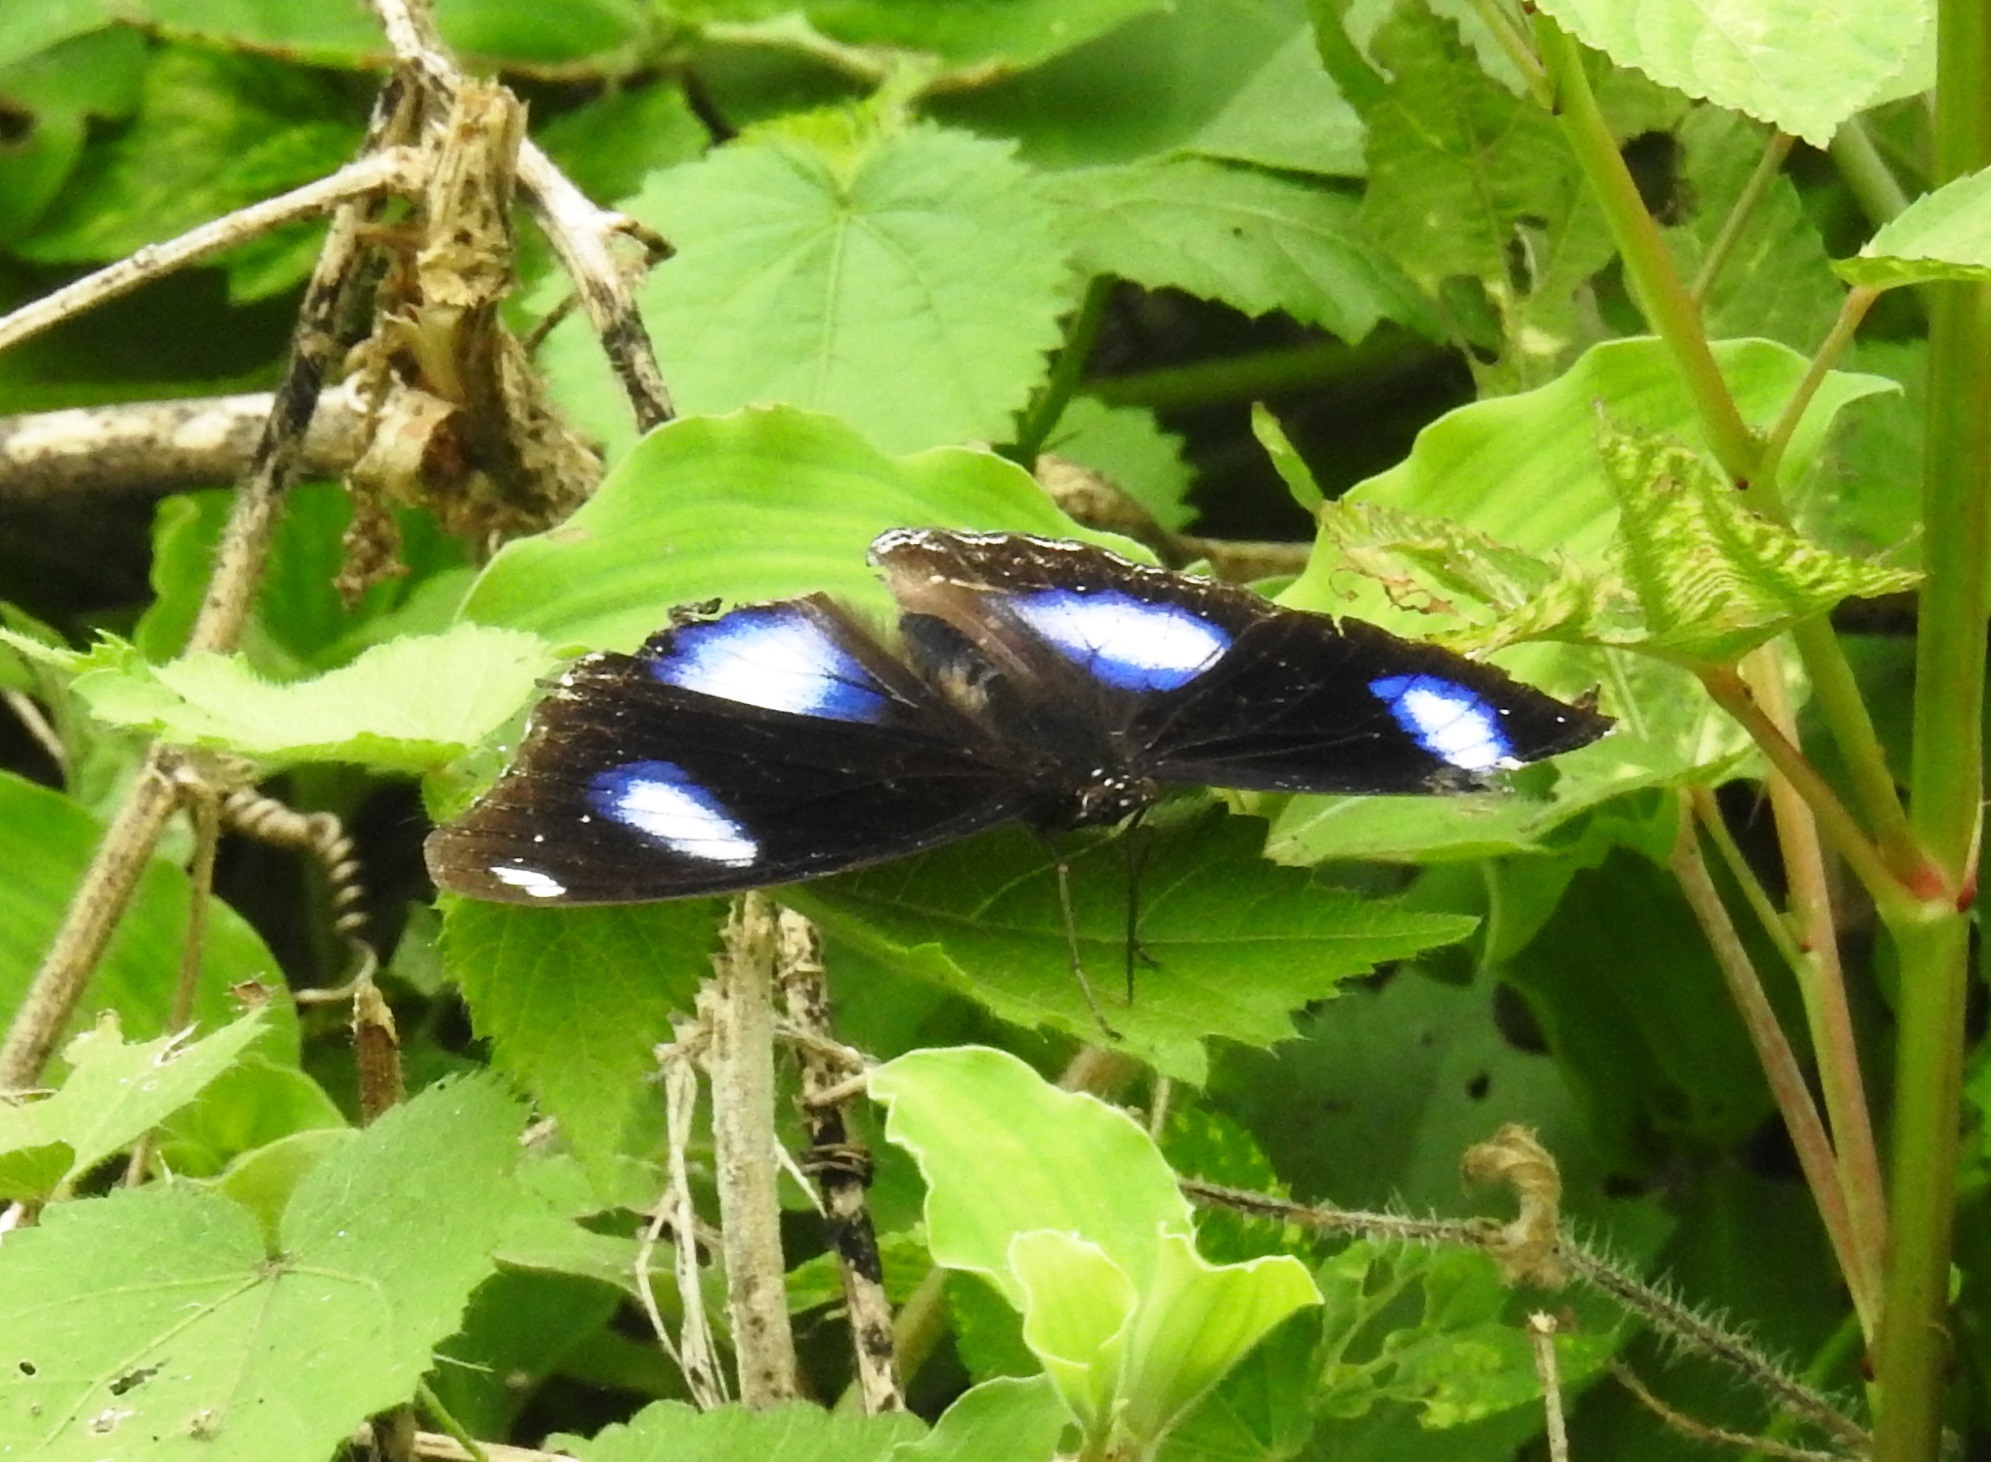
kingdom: Animalia
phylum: Arthropoda
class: Insecta
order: Lepidoptera
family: Nymphalidae
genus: Hypolimnas
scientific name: Hypolimnas bolina
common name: Great eggfly
